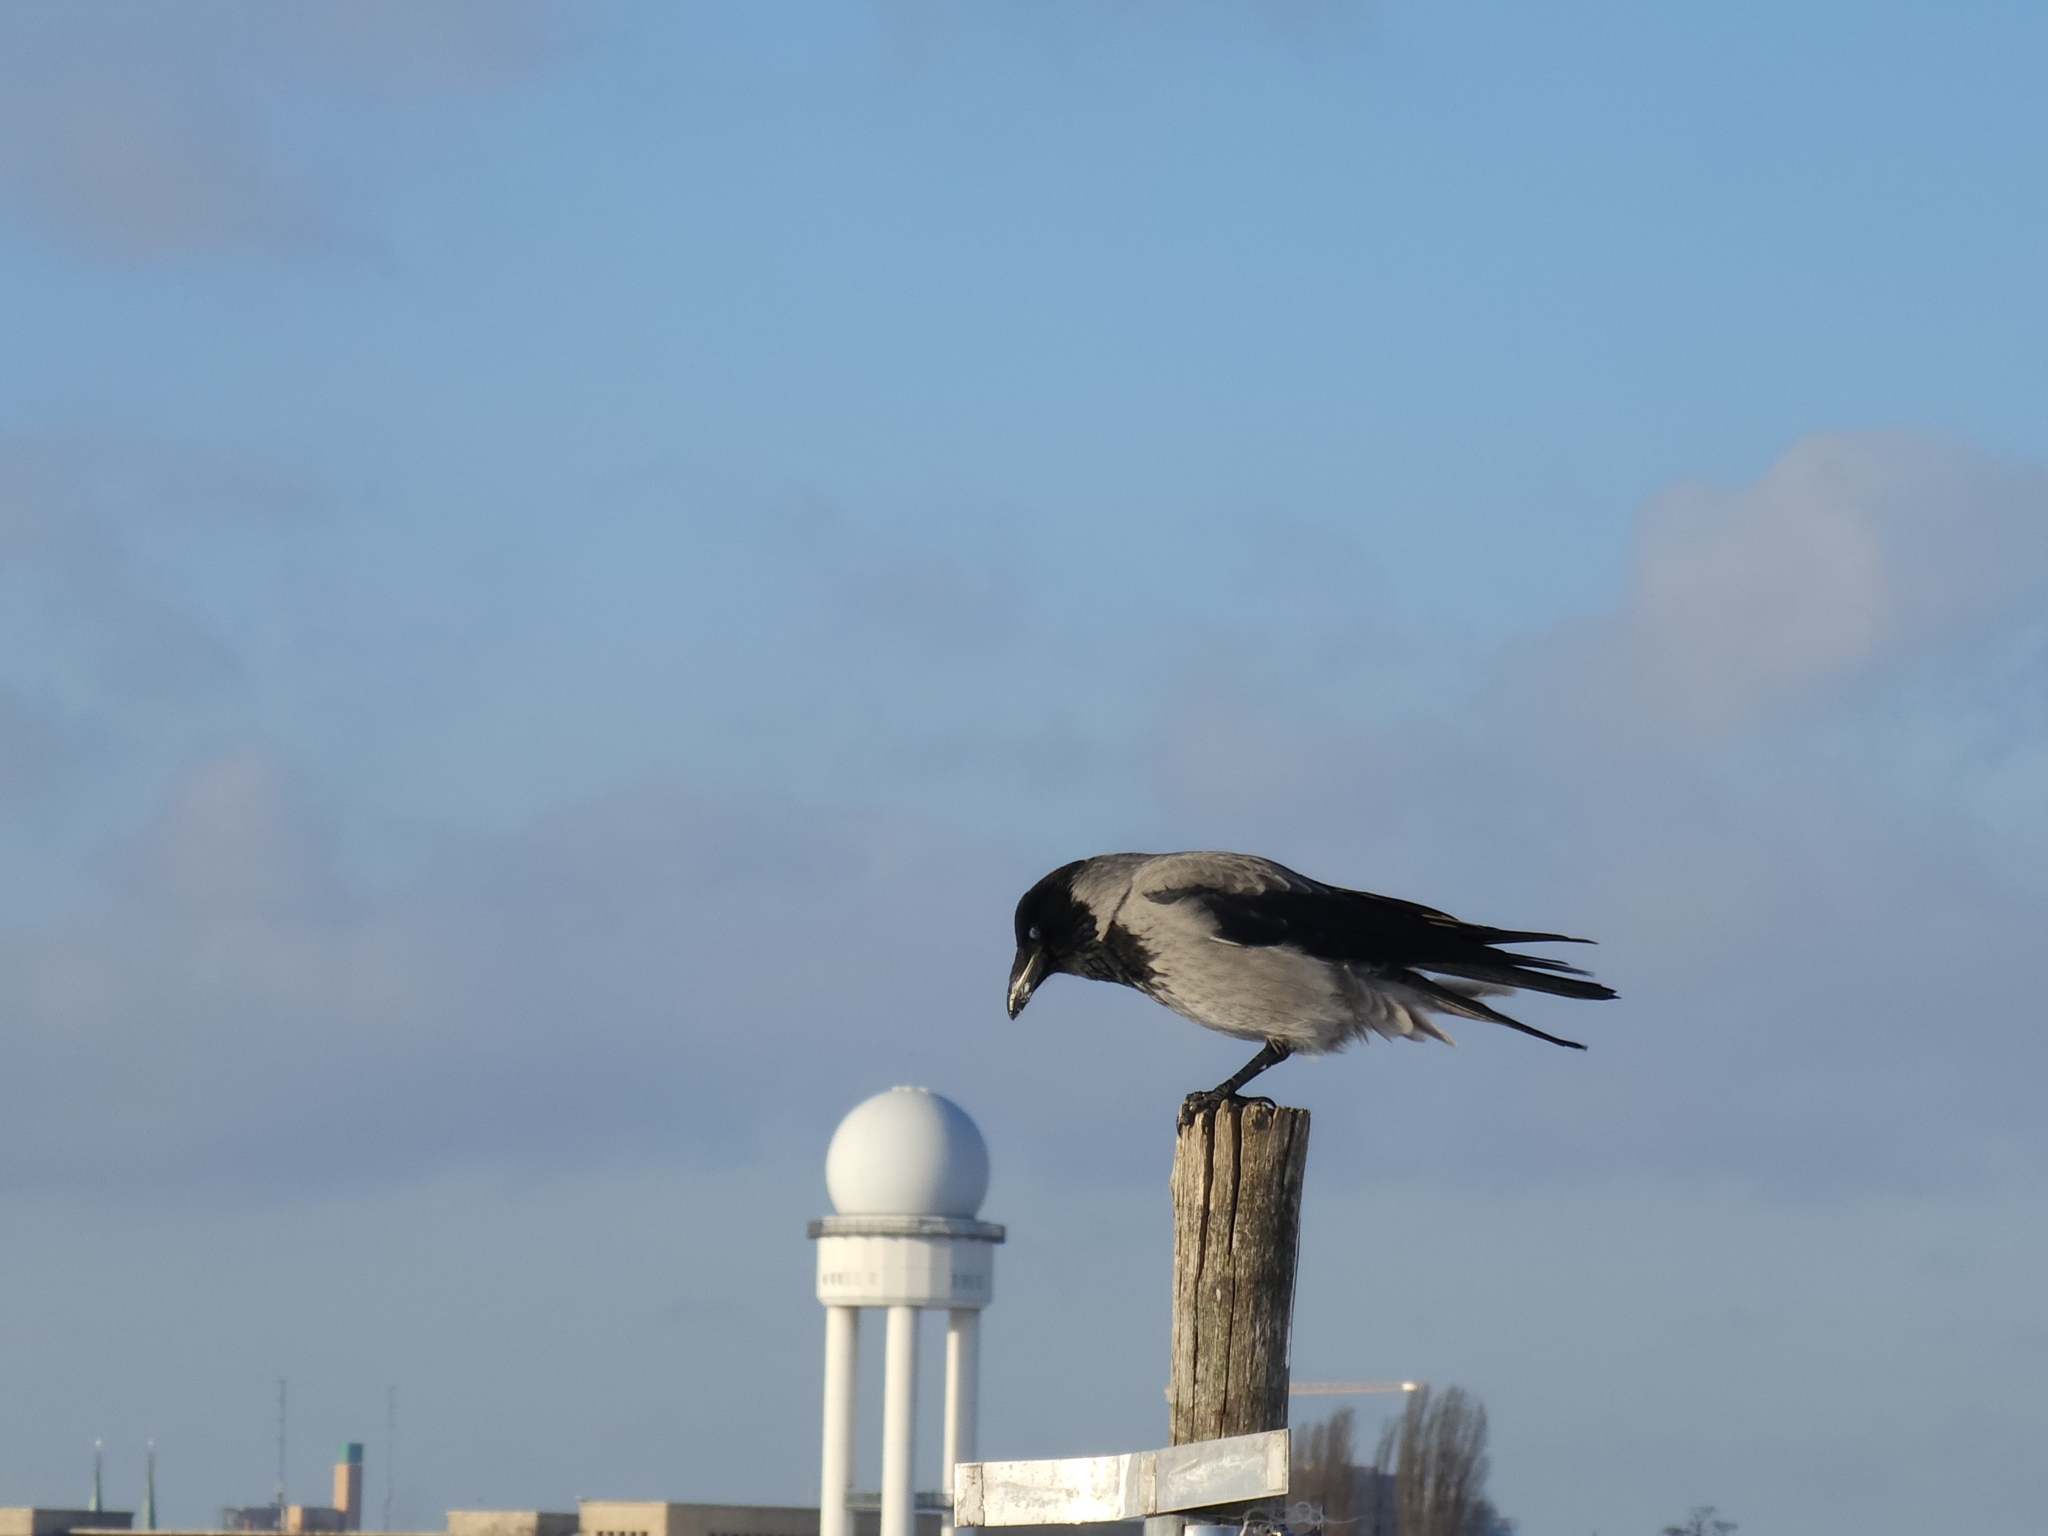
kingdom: Animalia
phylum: Chordata
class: Aves
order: Passeriformes
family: Corvidae
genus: Corvus
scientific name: Corvus cornix
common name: Hooded crow
